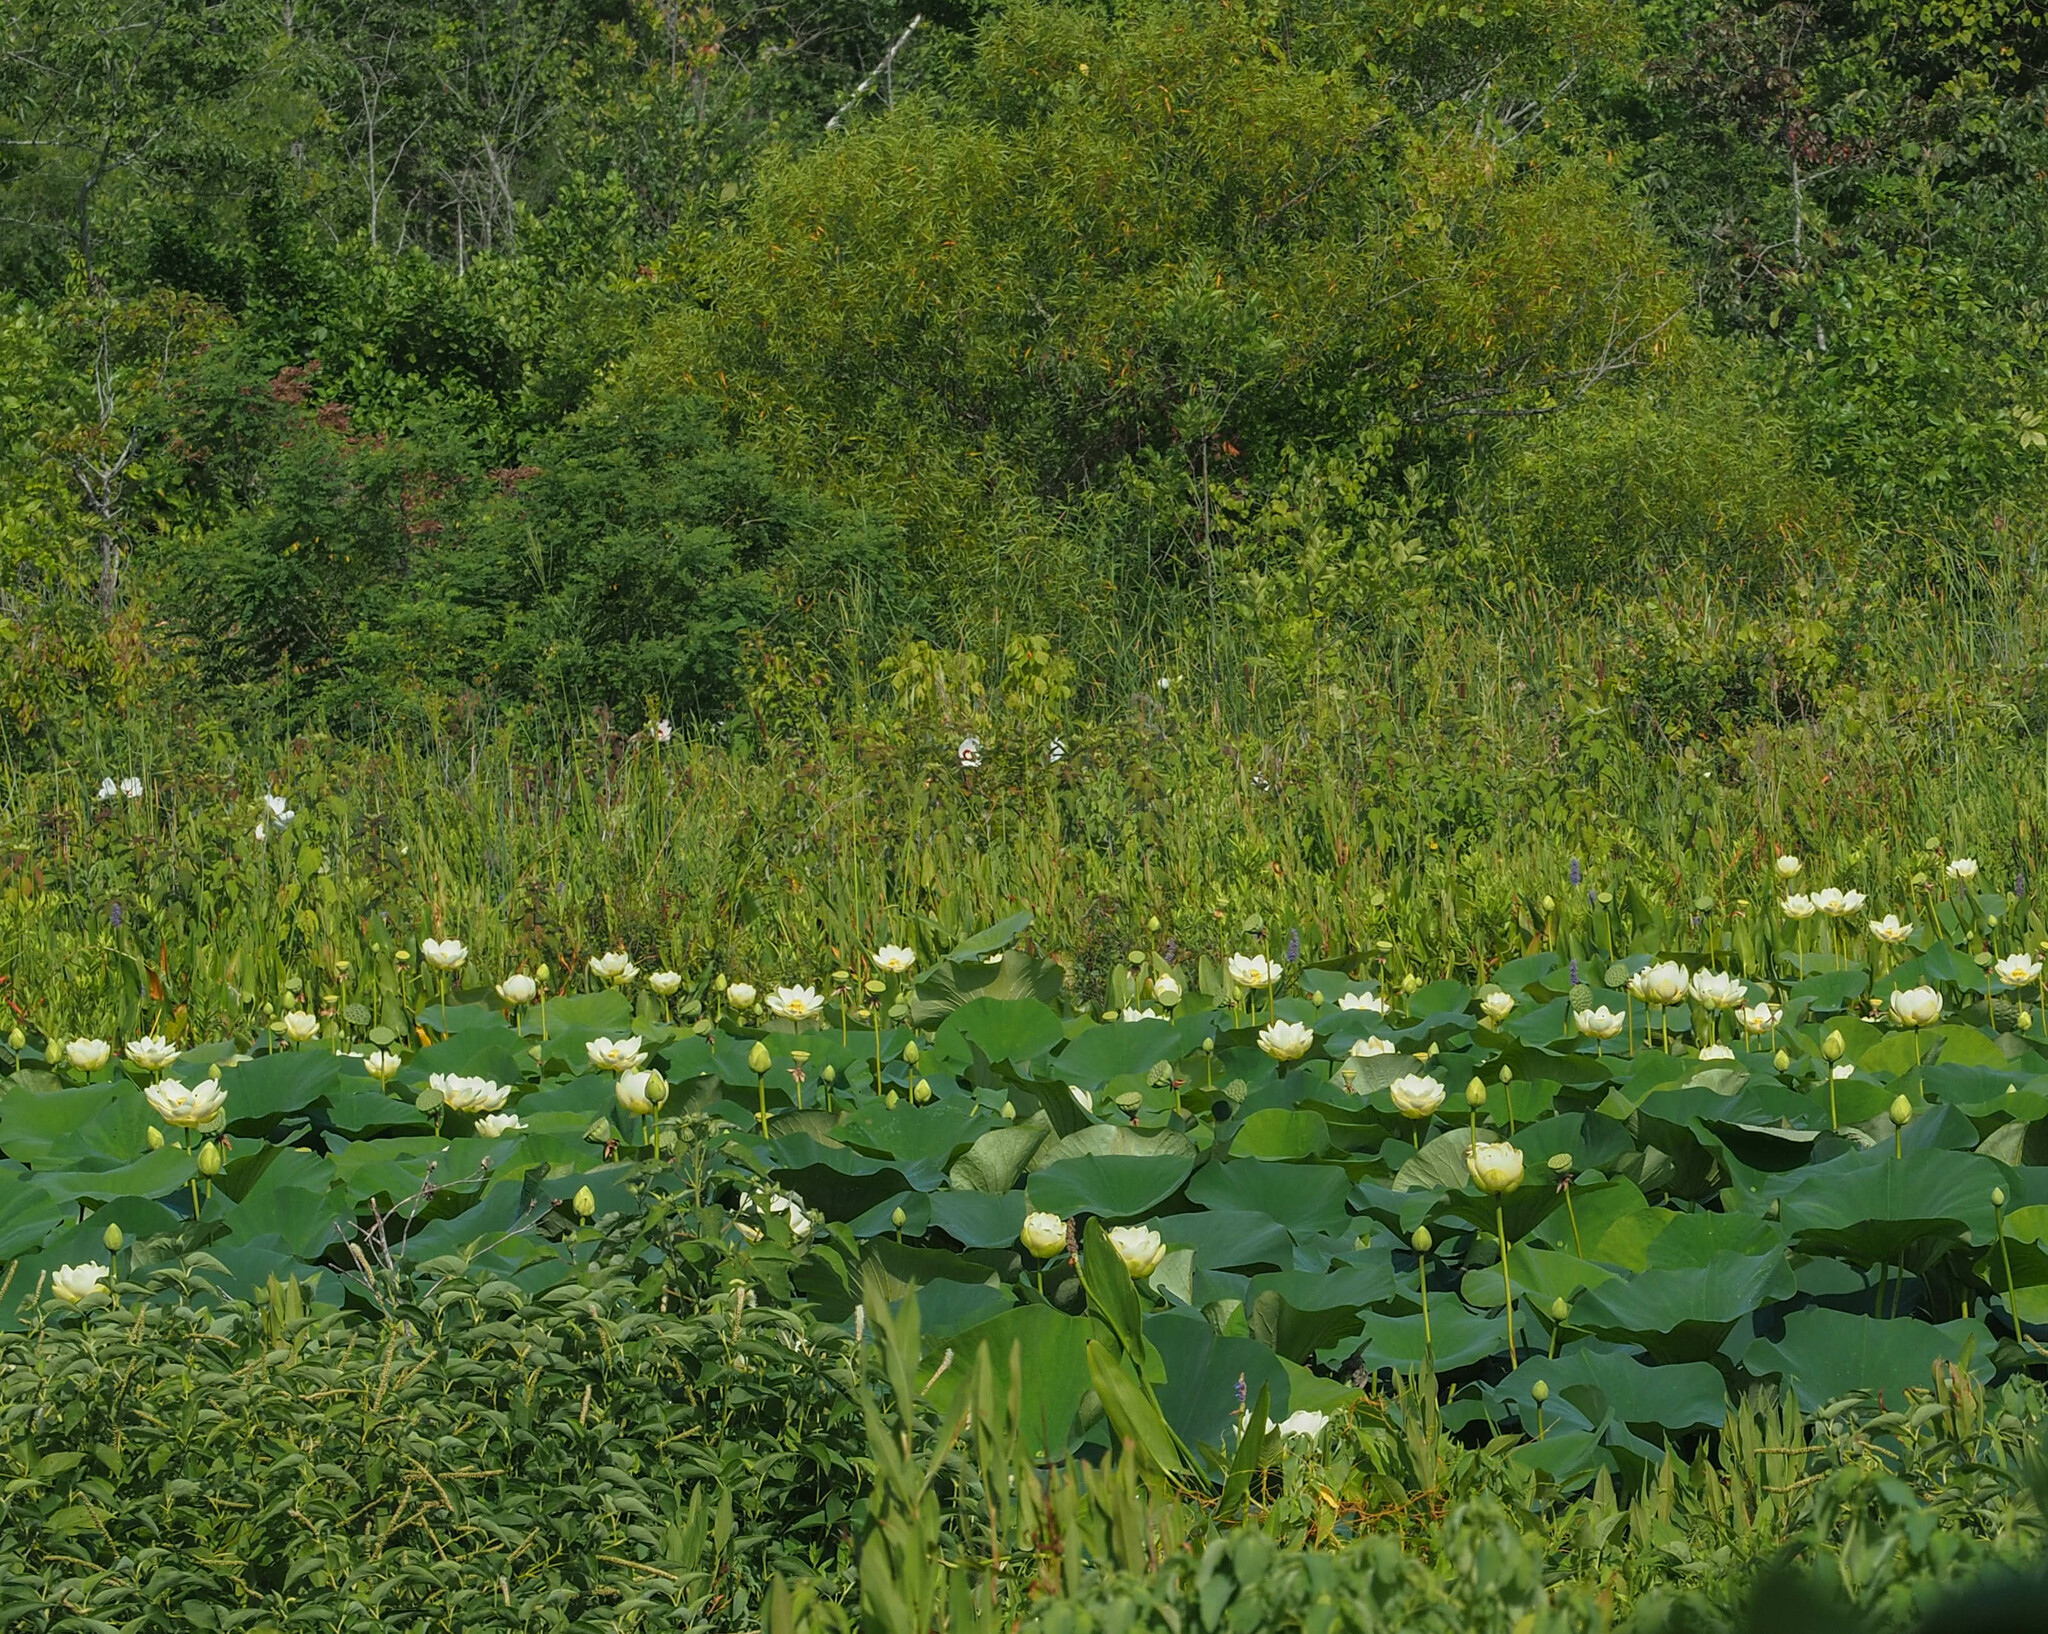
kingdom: Plantae
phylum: Tracheophyta
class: Magnoliopsida
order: Proteales
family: Nelumbonaceae
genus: Nelumbo
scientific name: Nelumbo lutea
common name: American lotus
